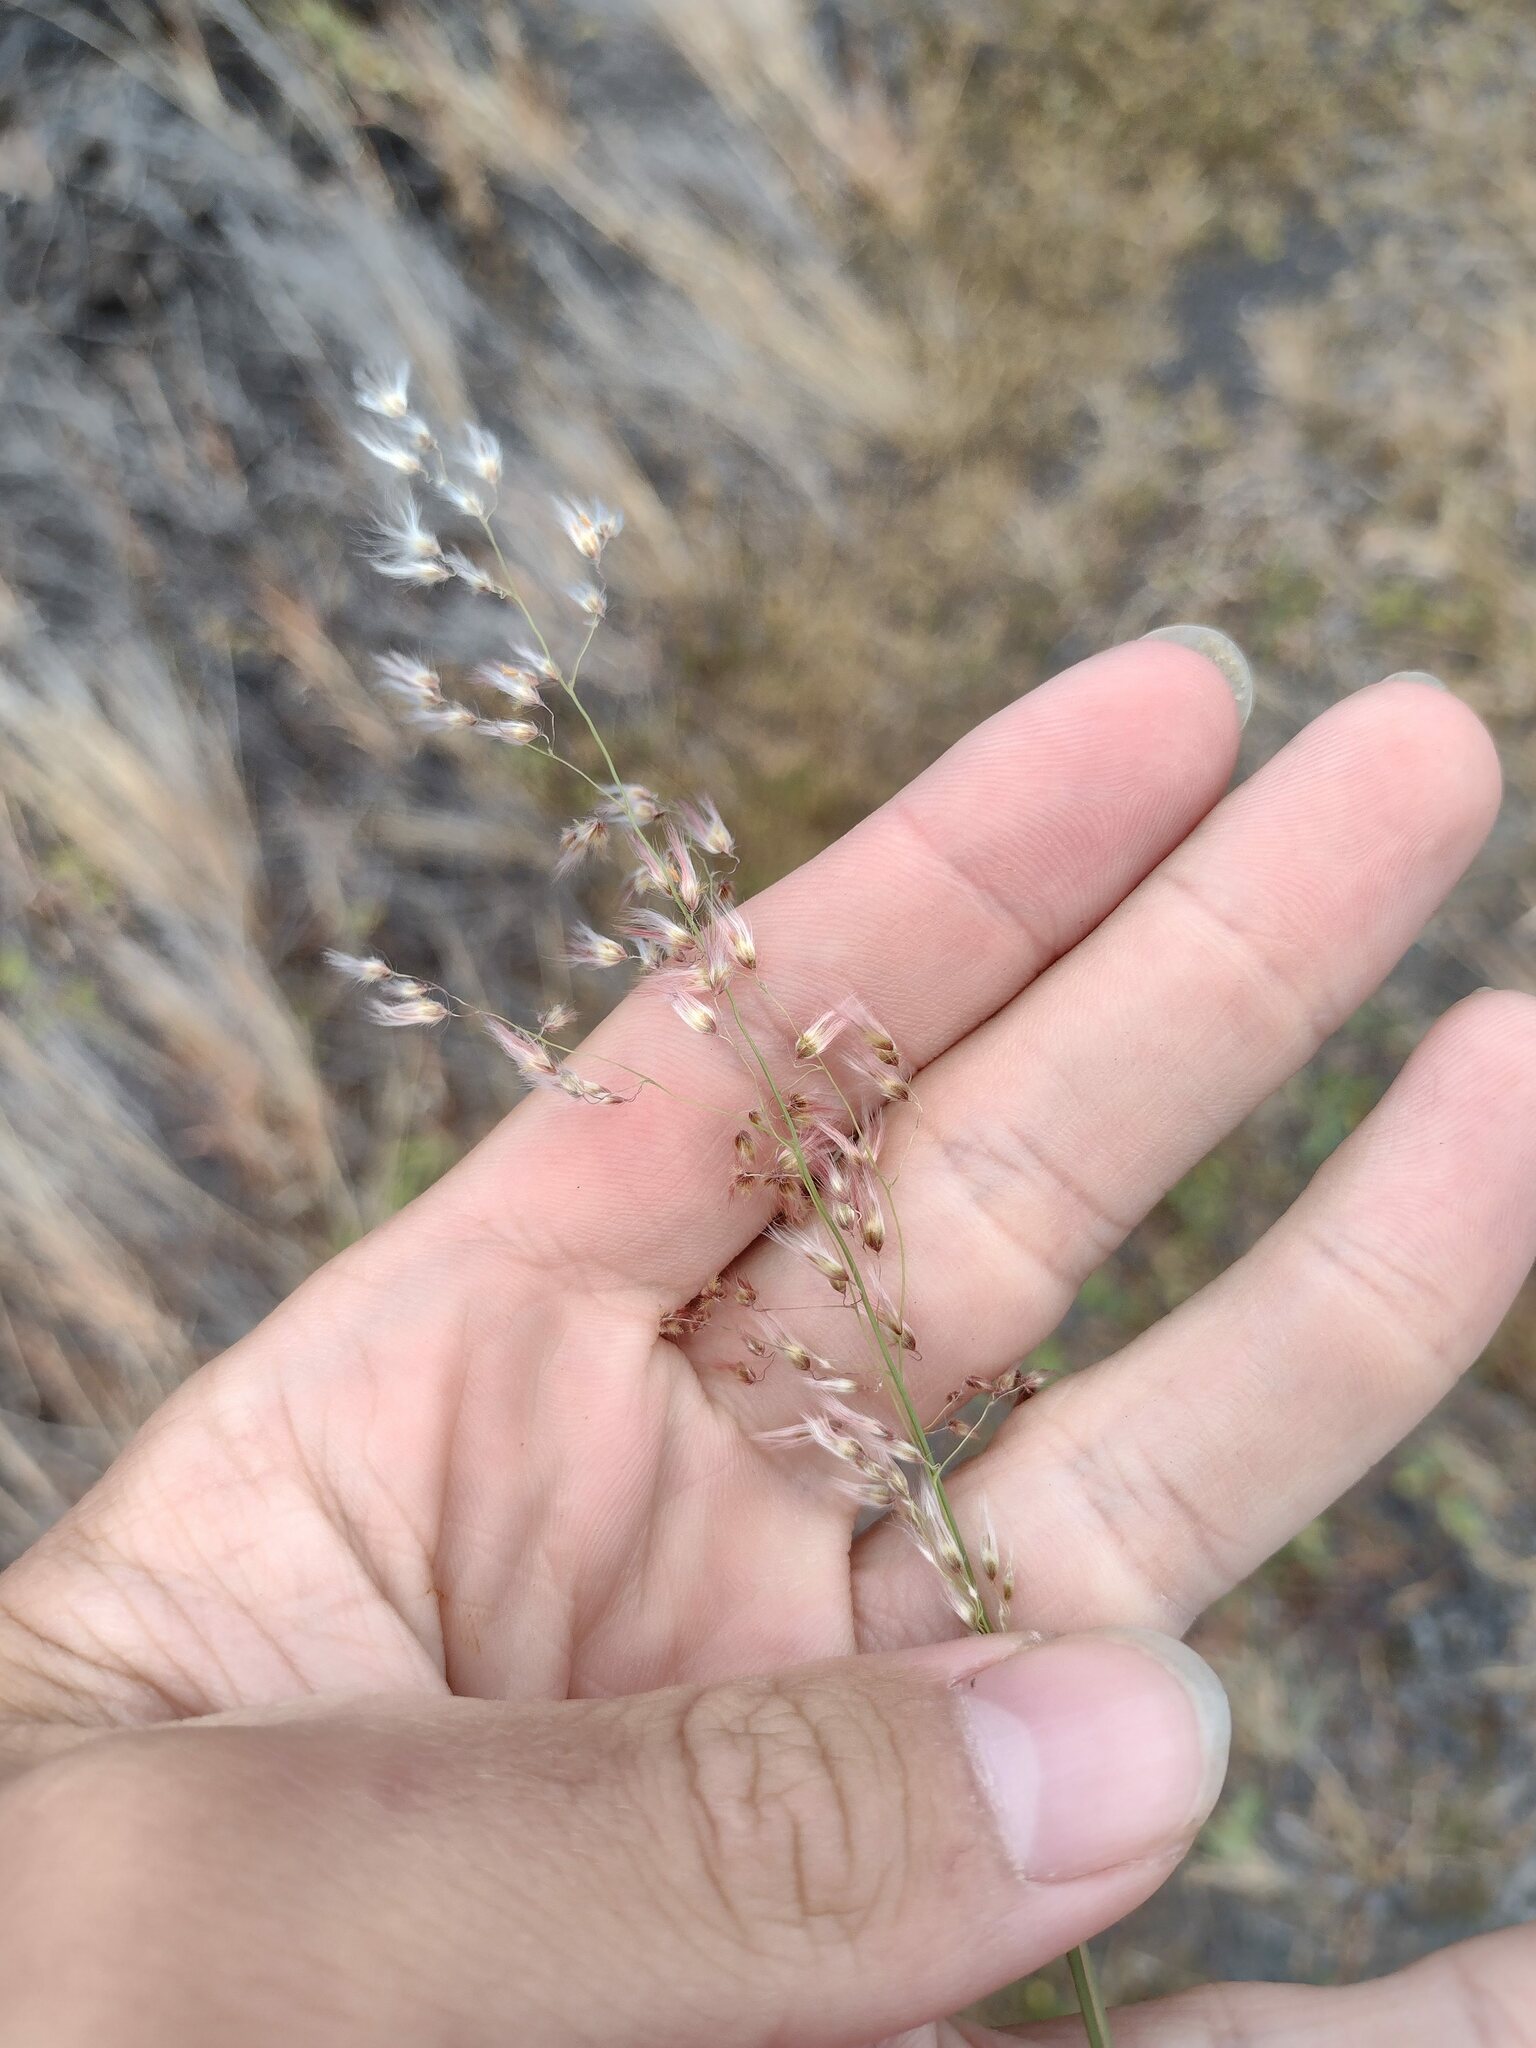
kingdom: Plantae
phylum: Tracheophyta
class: Liliopsida
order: Poales
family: Poaceae
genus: Melinis
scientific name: Melinis repens
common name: Rose natal grass
